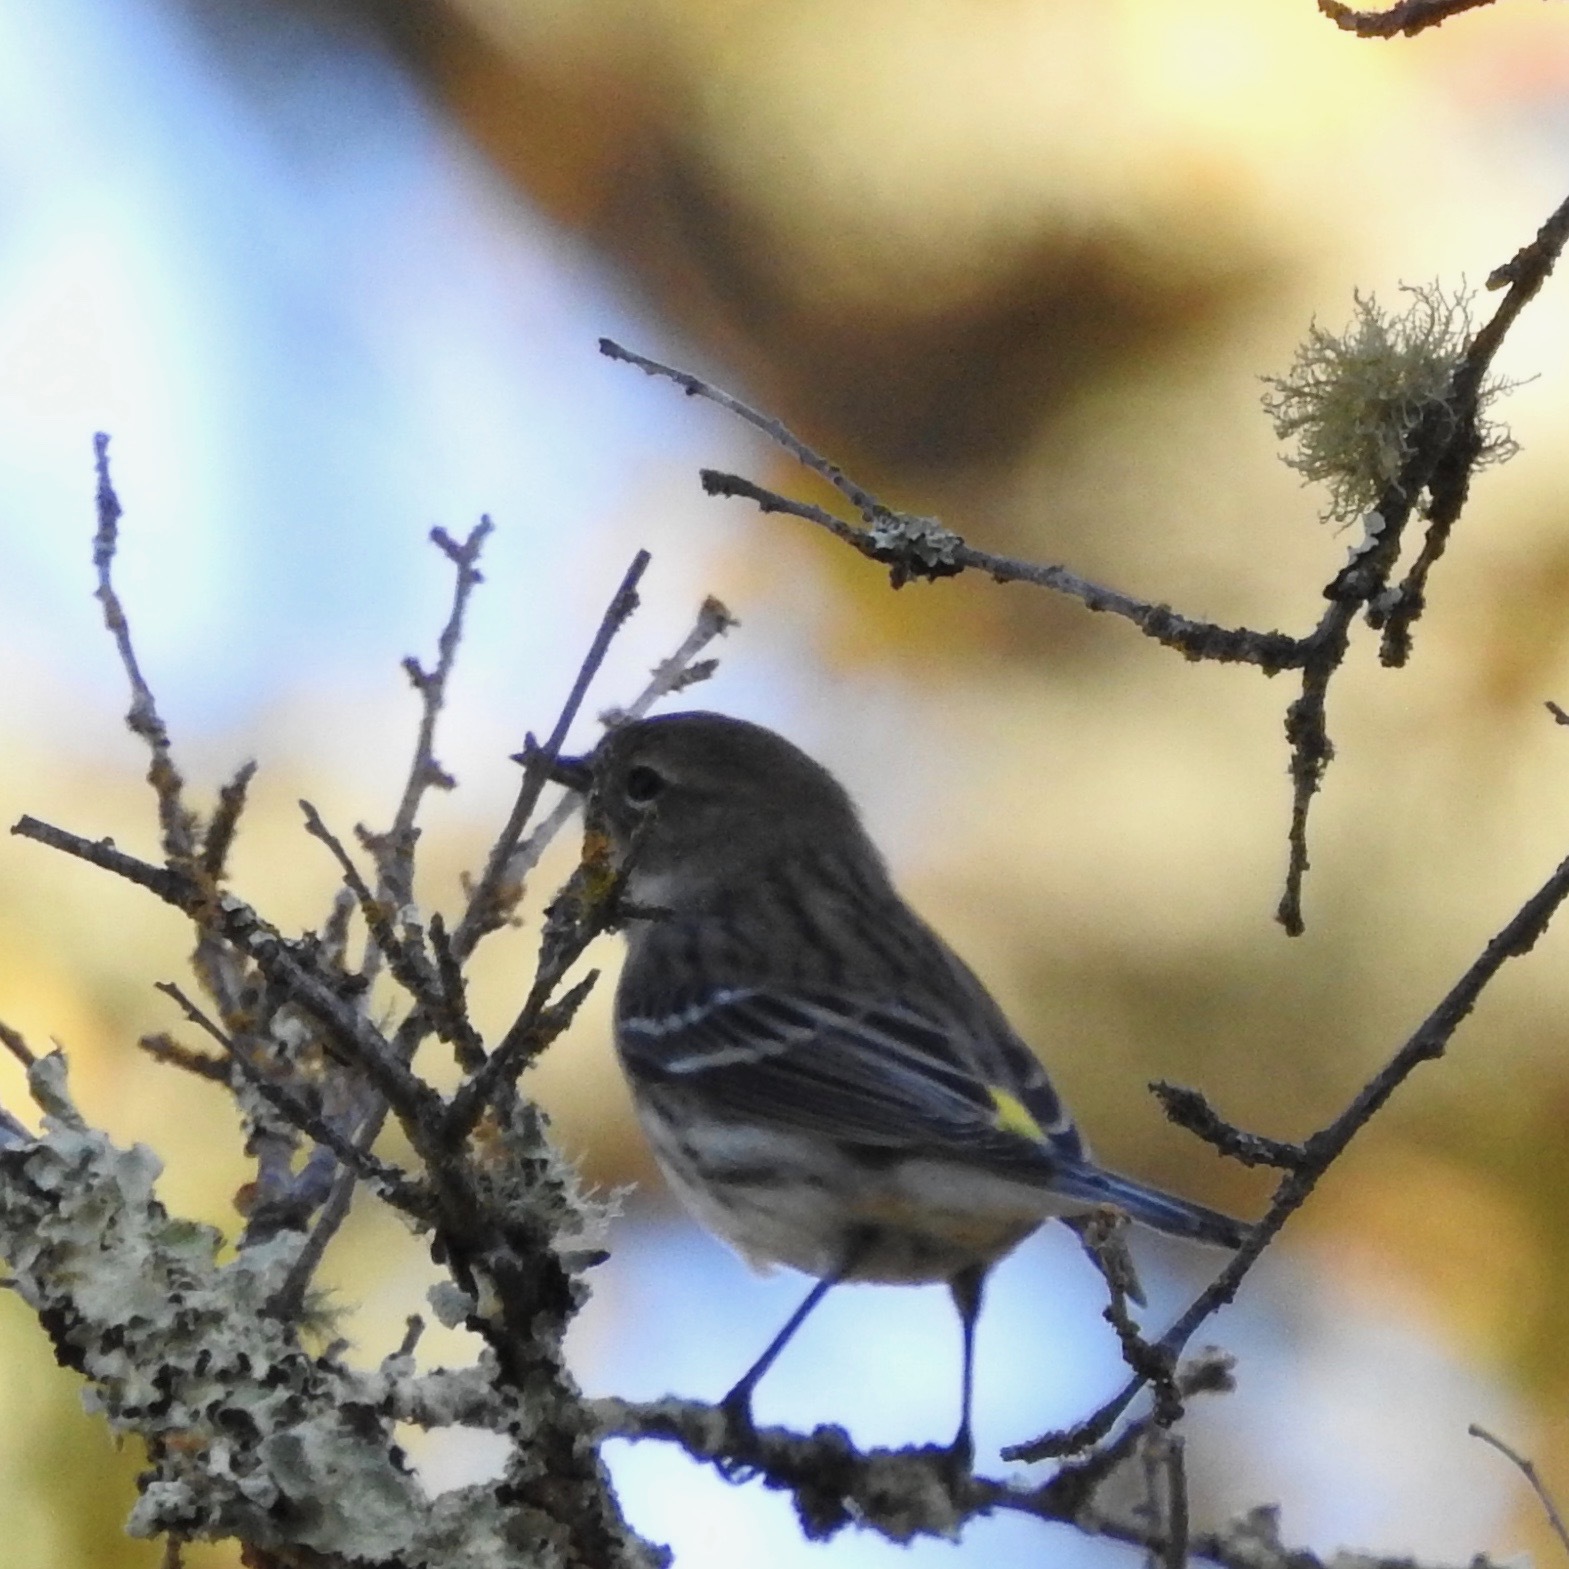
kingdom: Animalia
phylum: Chordata
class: Aves
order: Passeriformes
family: Parulidae
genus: Setophaga
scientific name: Setophaga coronata
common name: Myrtle warbler
